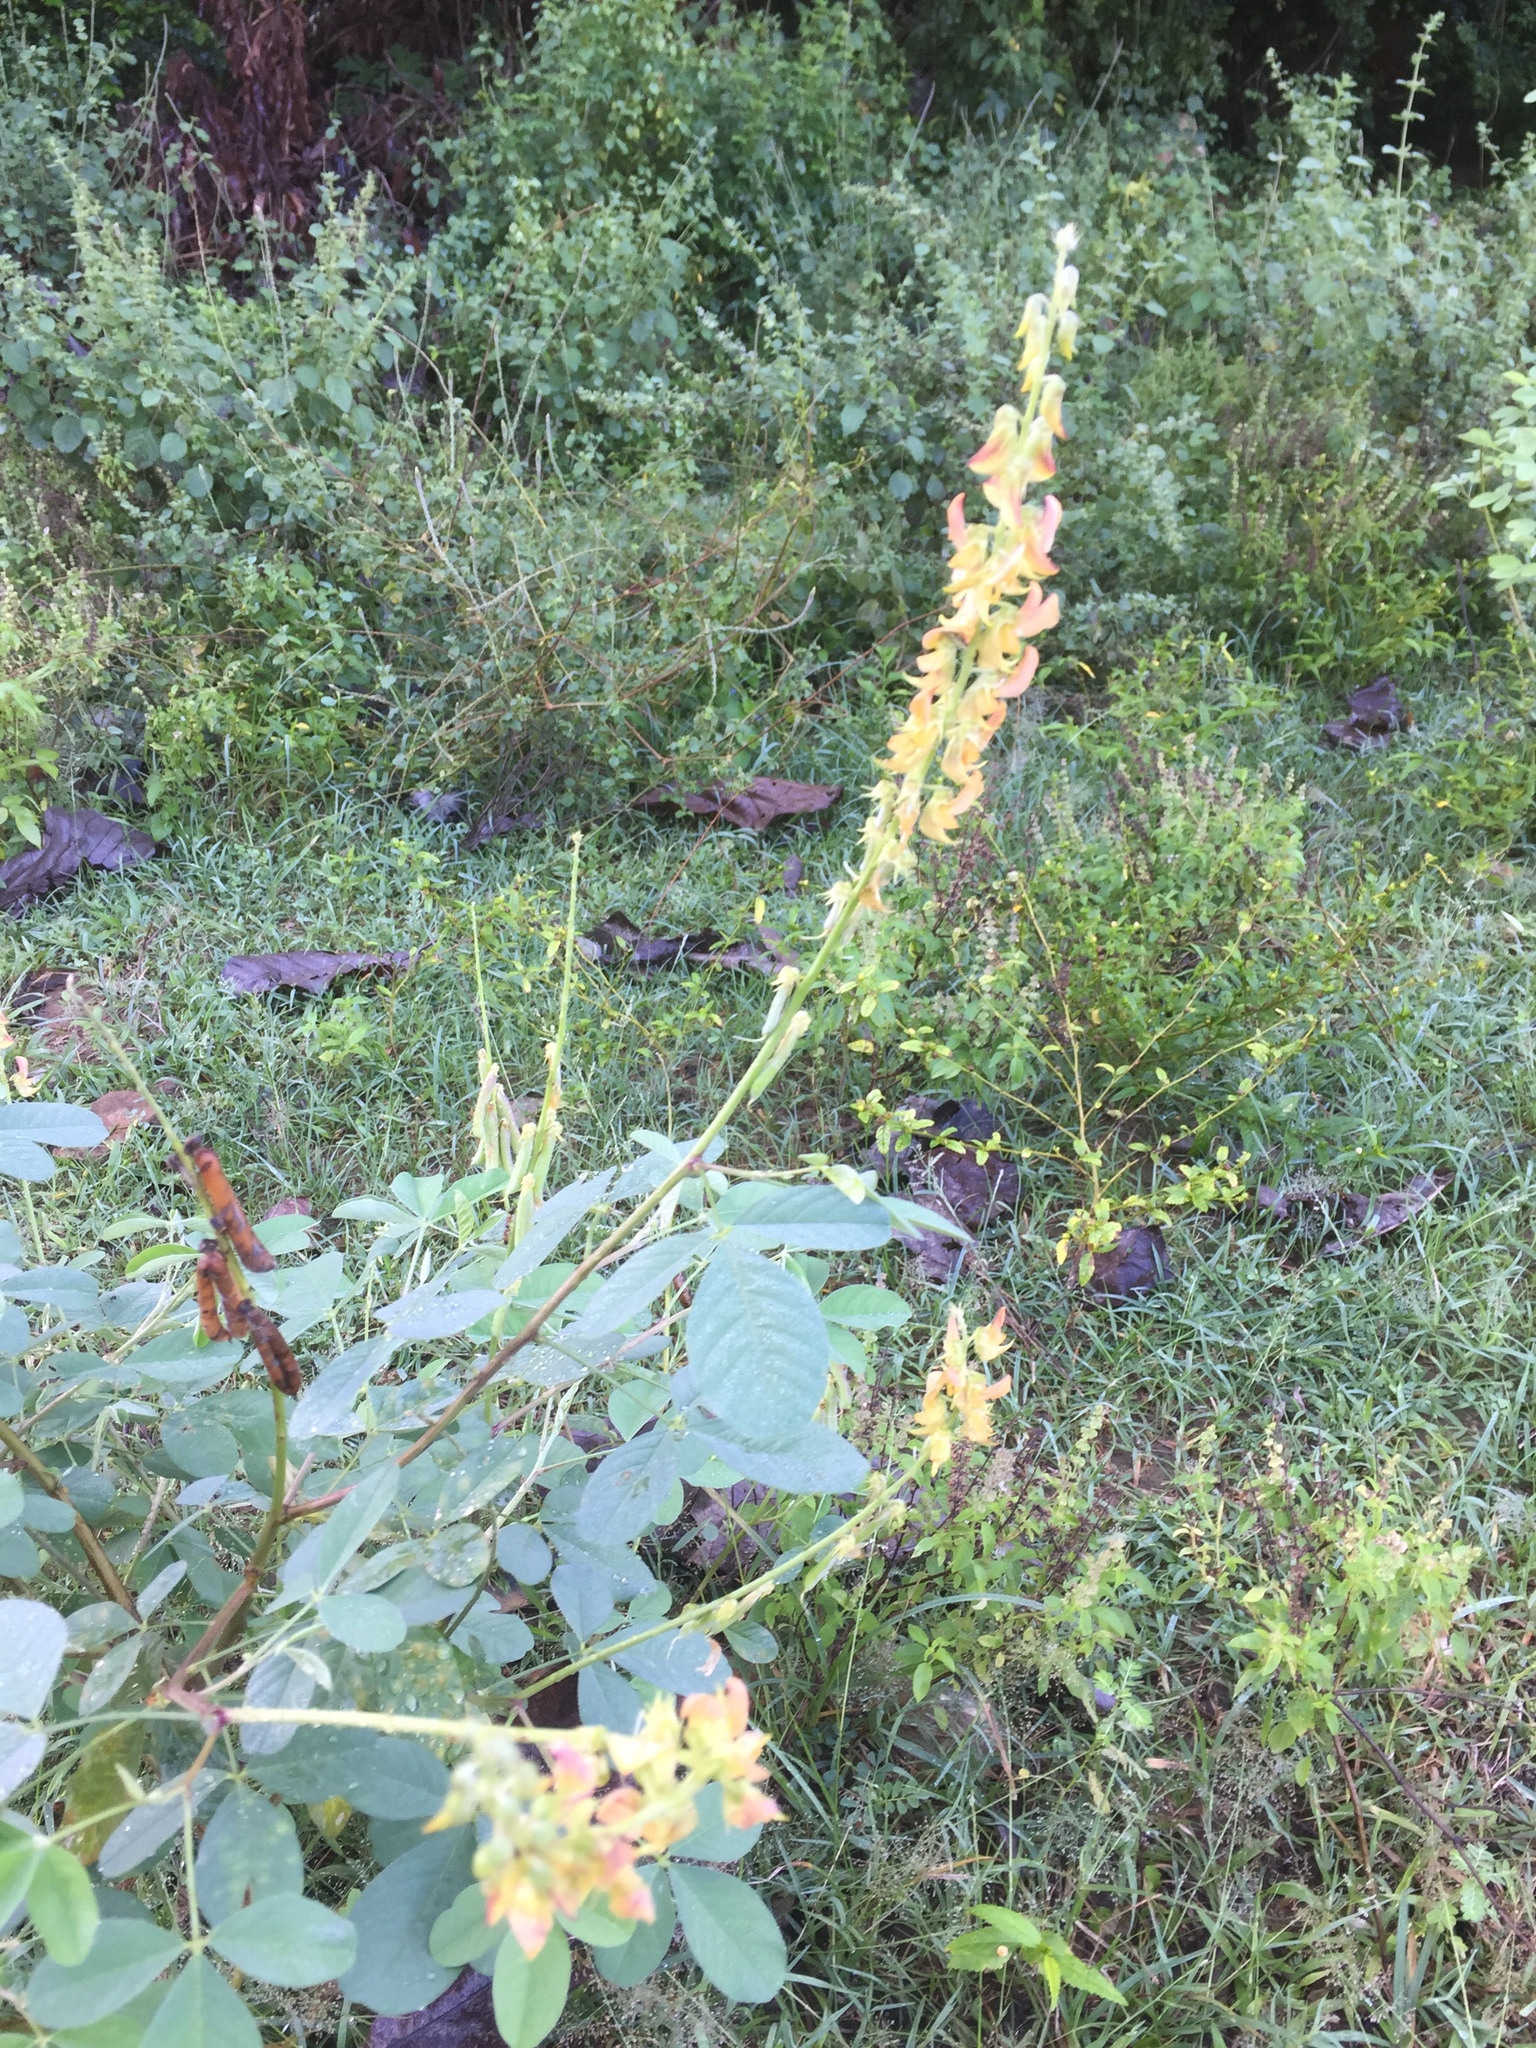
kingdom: Plantae
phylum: Tracheophyta
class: Magnoliopsida
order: Fabales
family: Fabaceae
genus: Crotalaria
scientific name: Crotalaria pallida
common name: Smooth rattlebox
